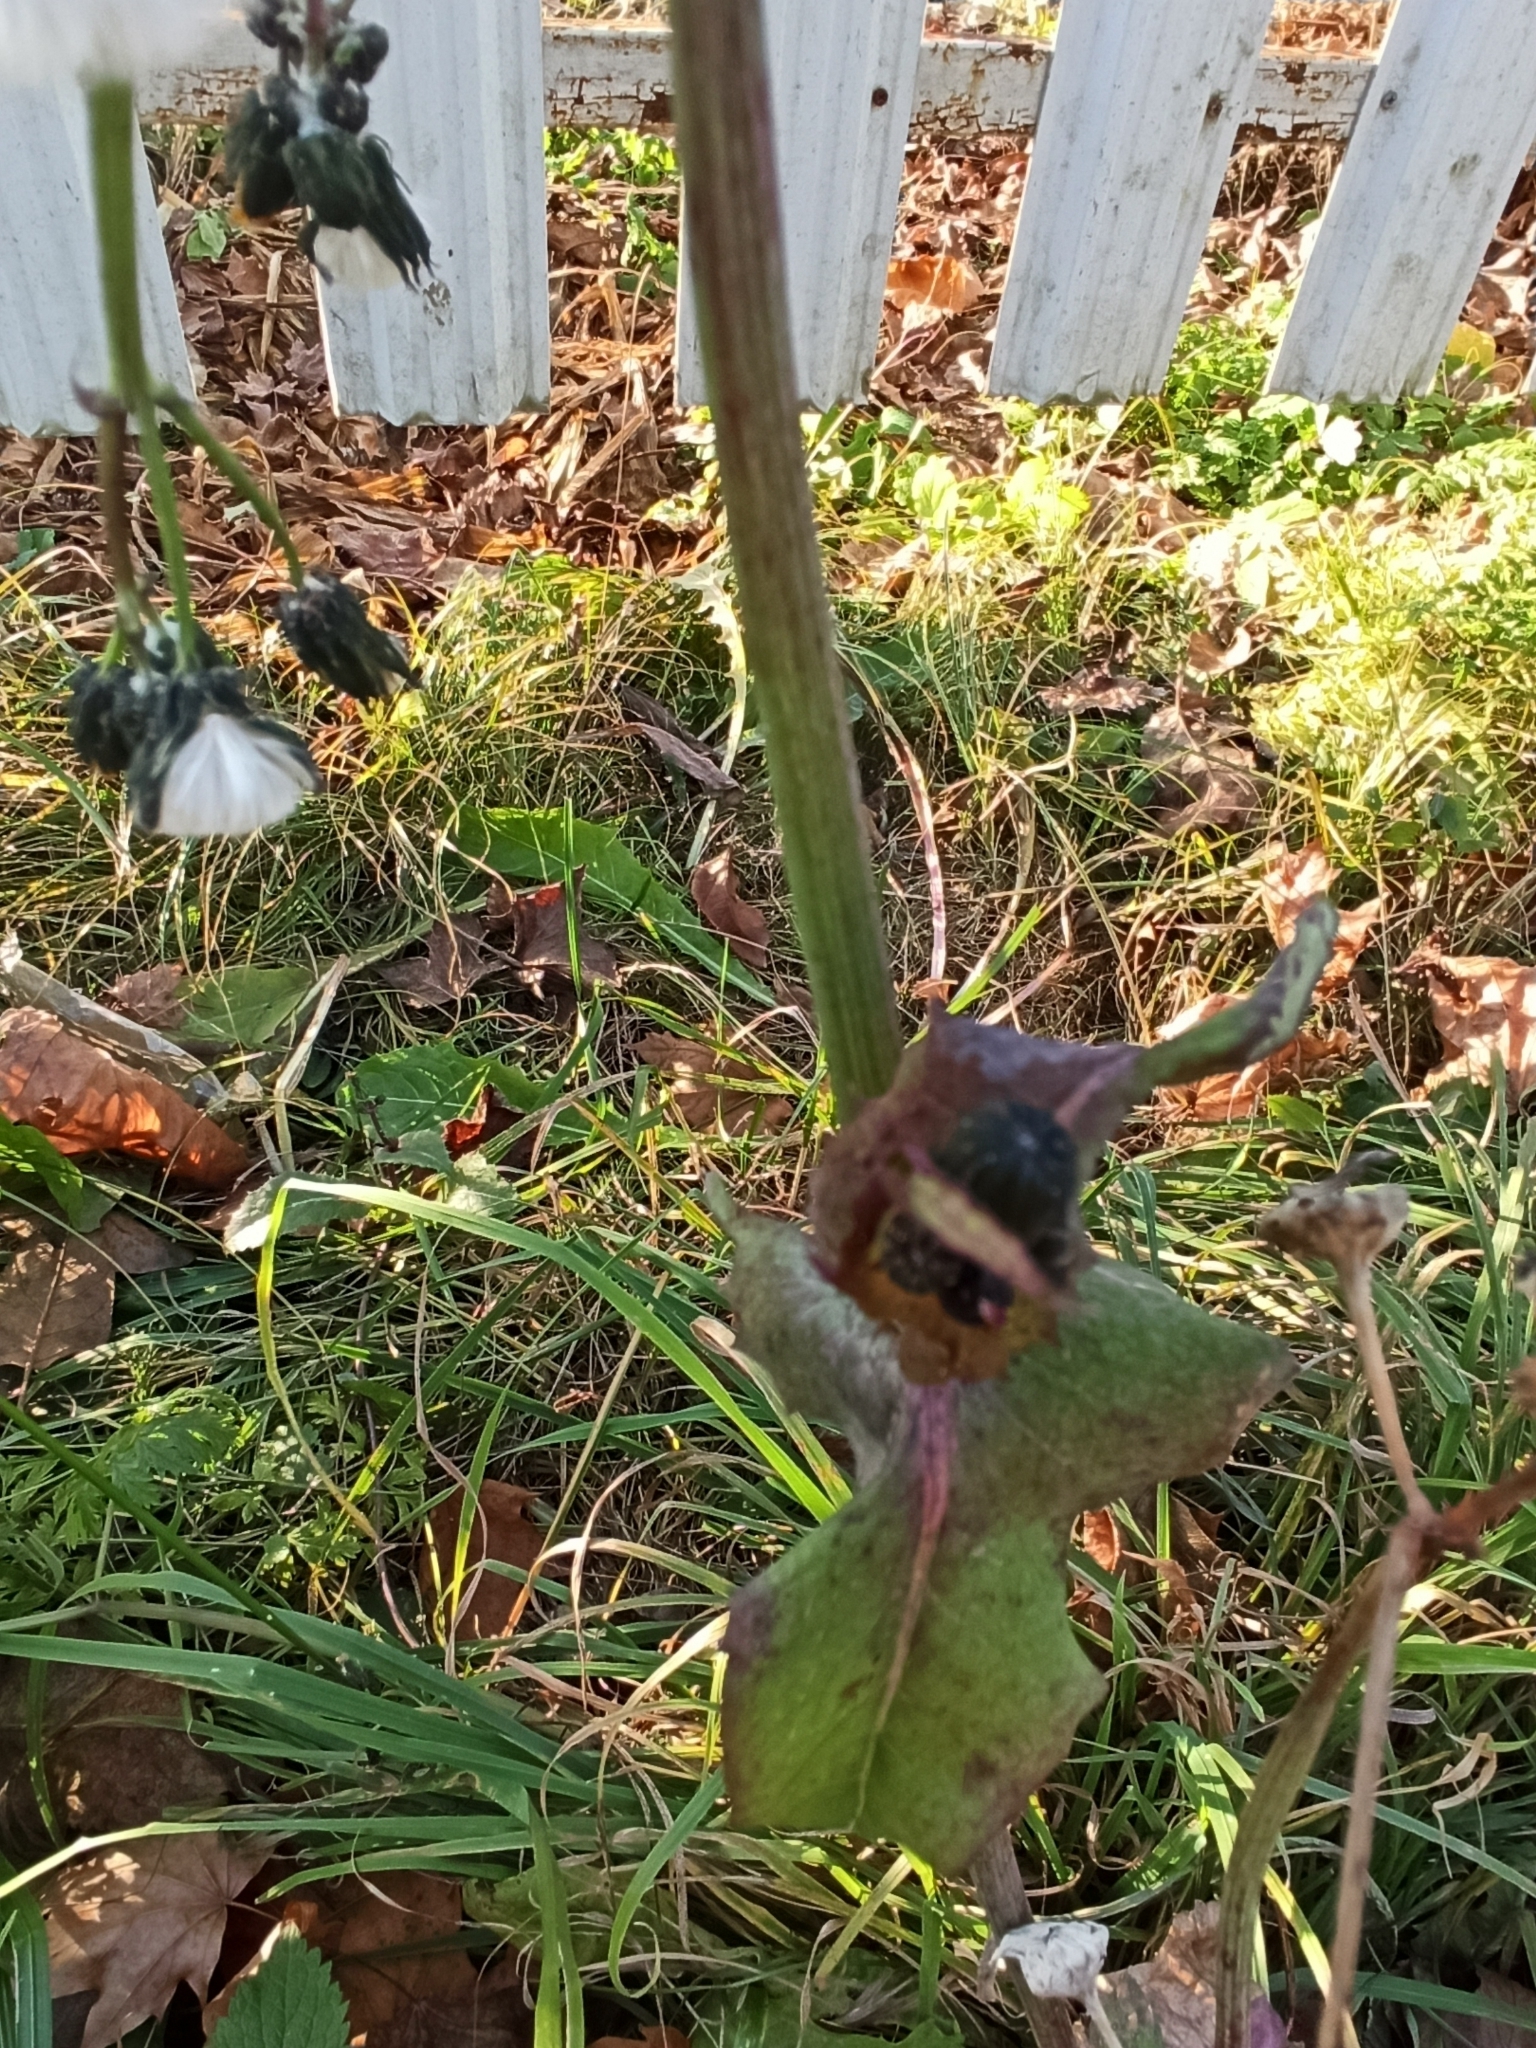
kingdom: Plantae
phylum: Tracheophyta
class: Magnoliopsida
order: Asterales
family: Asteraceae
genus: Sonchus
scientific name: Sonchus oleraceus
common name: Common sowthistle
